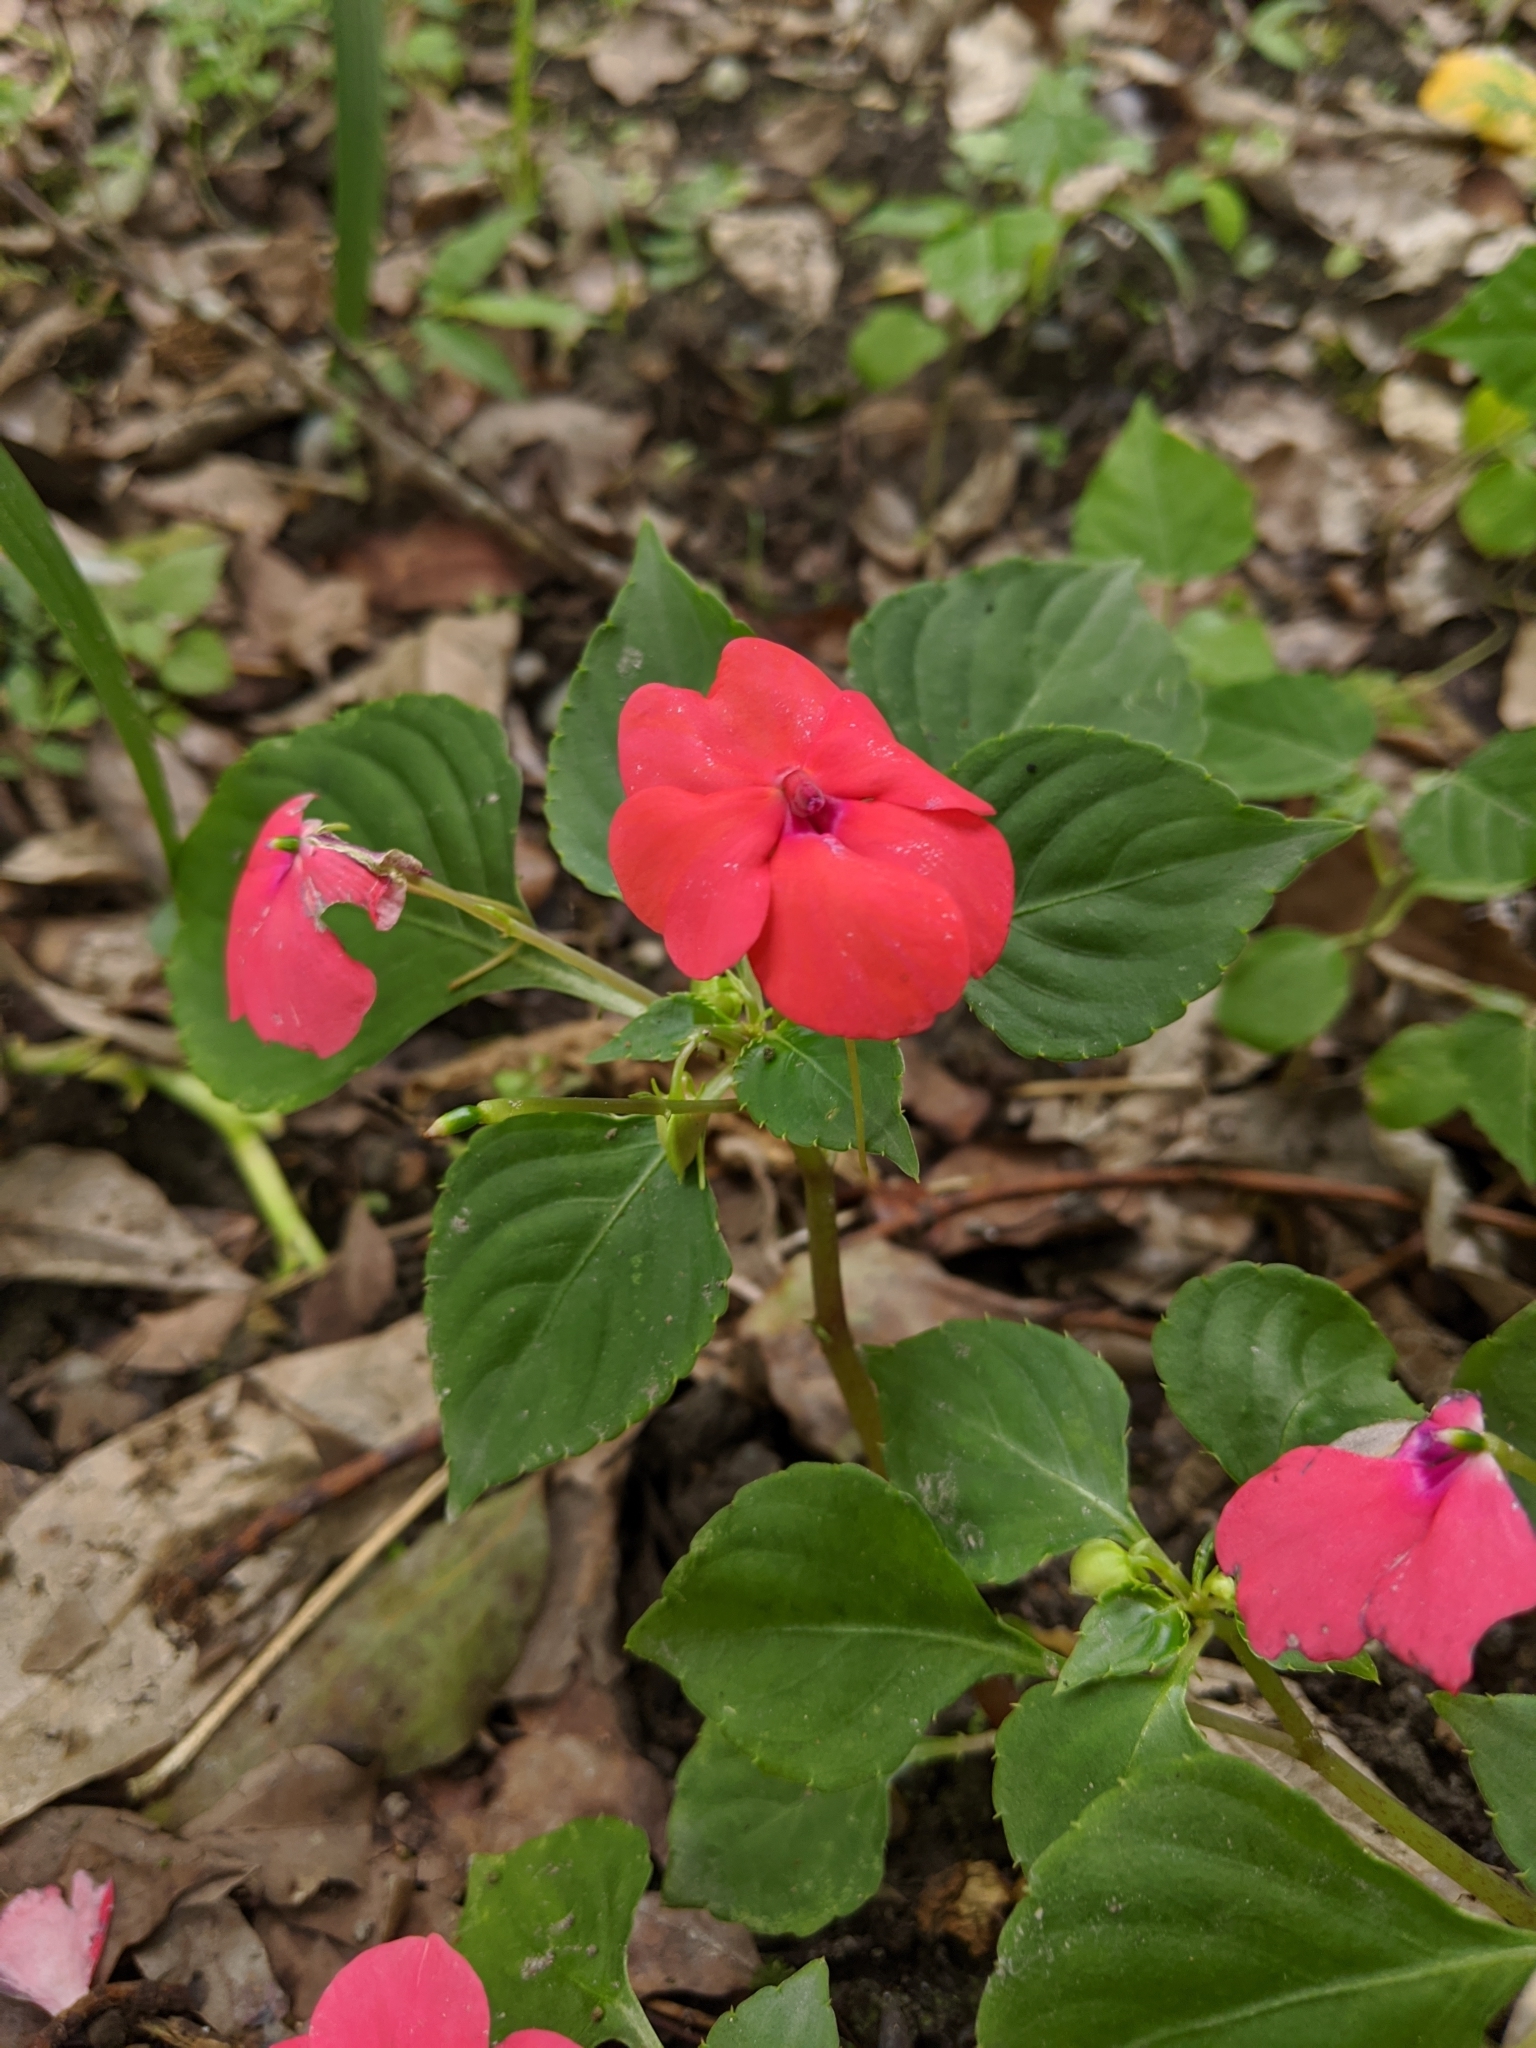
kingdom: Plantae
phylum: Tracheophyta
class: Magnoliopsida
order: Ericales
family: Balsaminaceae
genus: Impatiens
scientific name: Impatiens walleriana
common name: Buzzy lizzy
